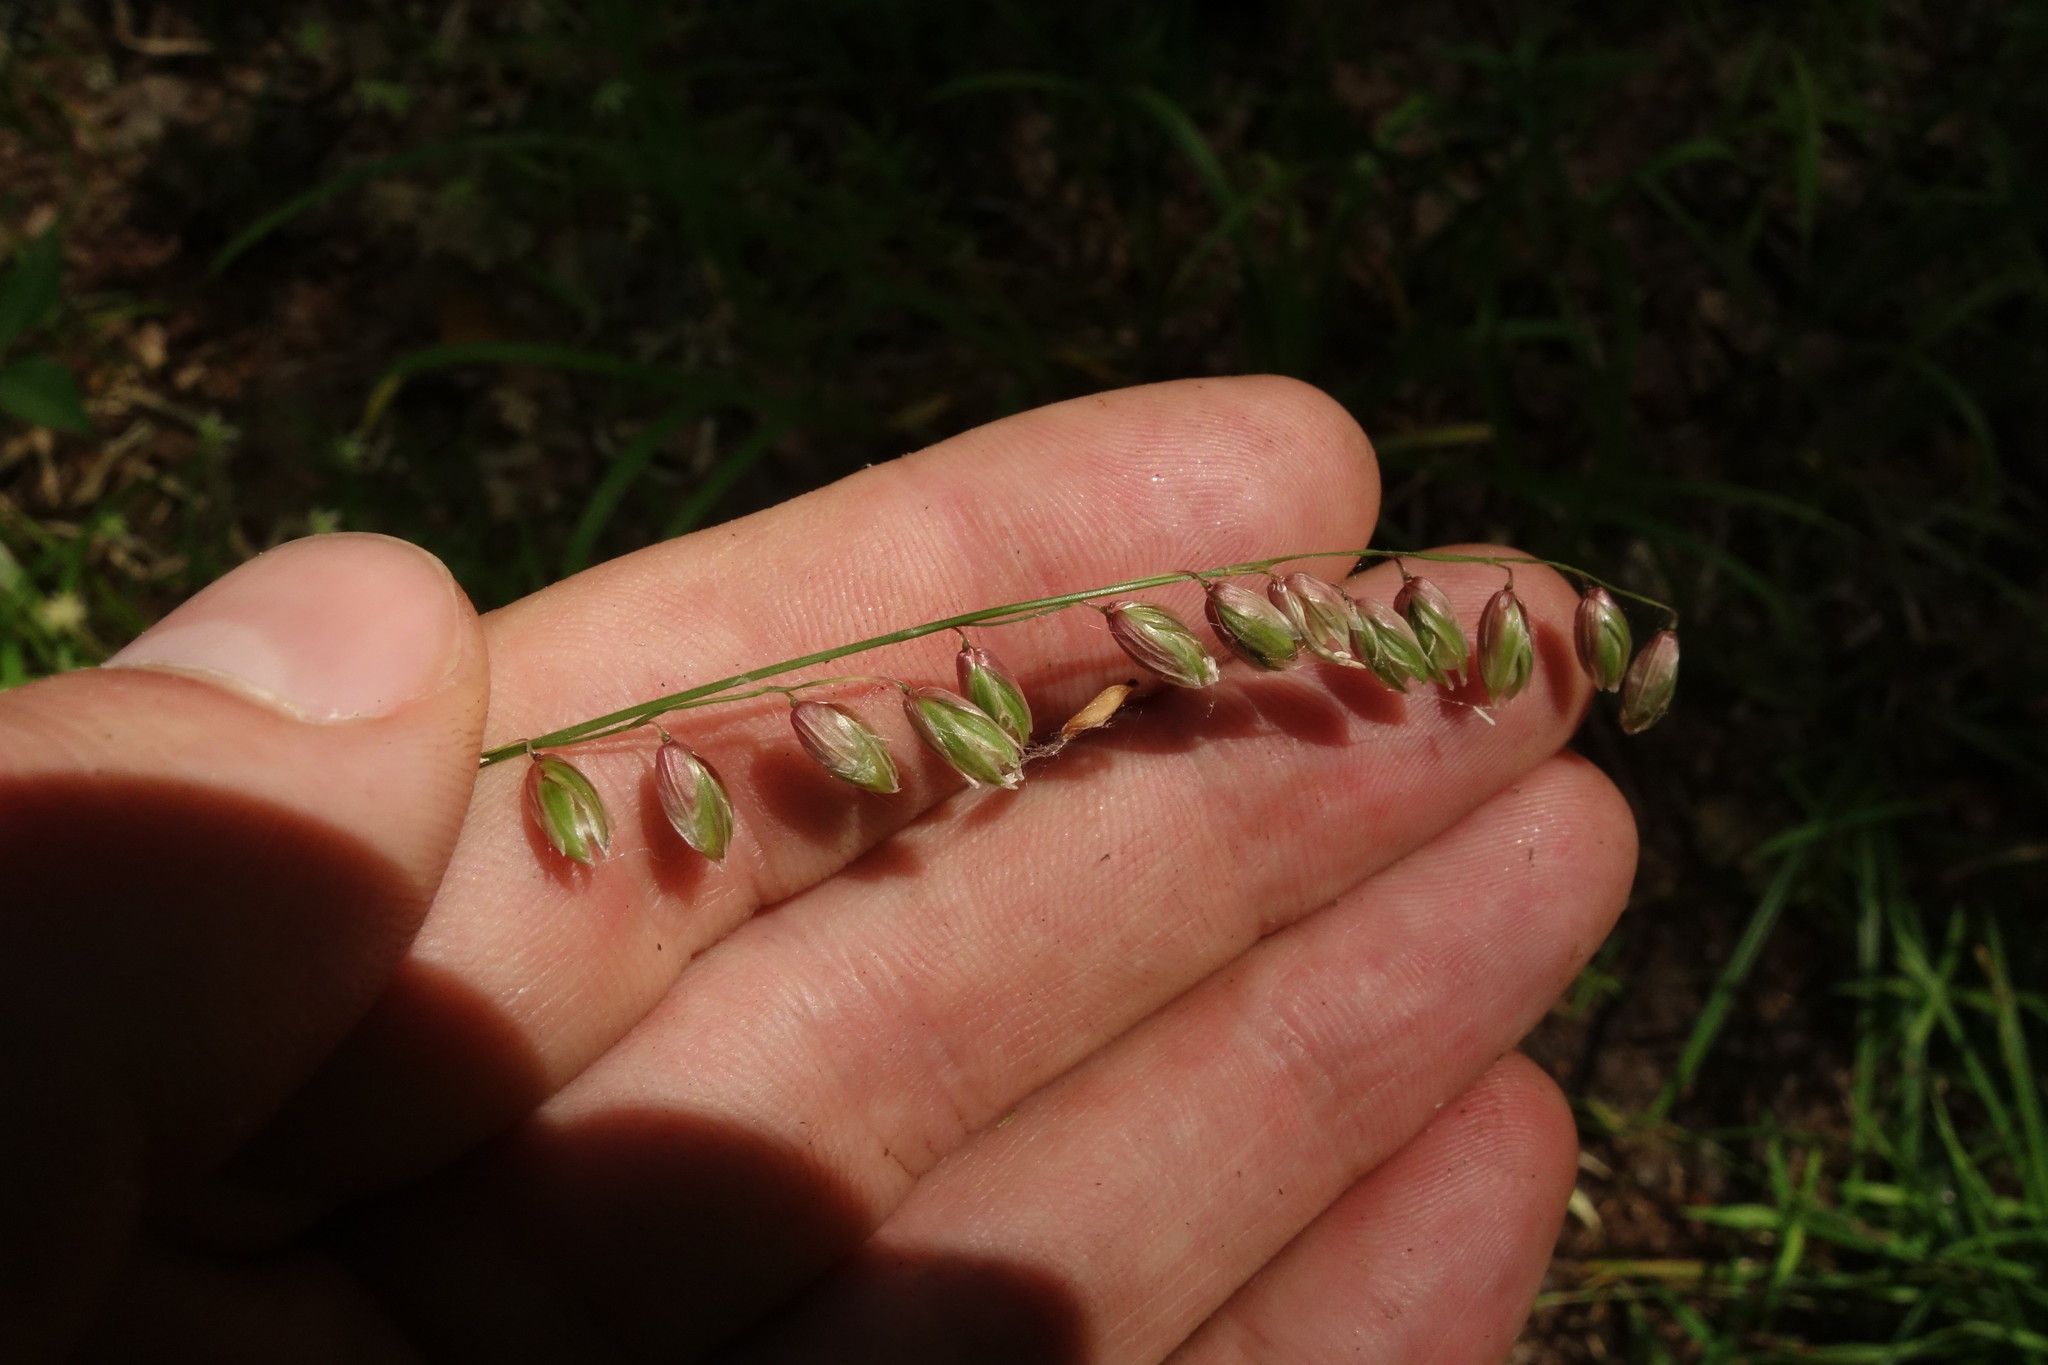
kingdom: Plantae
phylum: Tracheophyta
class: Liliopsida
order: Poales
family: Poaceae
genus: Melica
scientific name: Melica nutans
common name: Mountain melick
